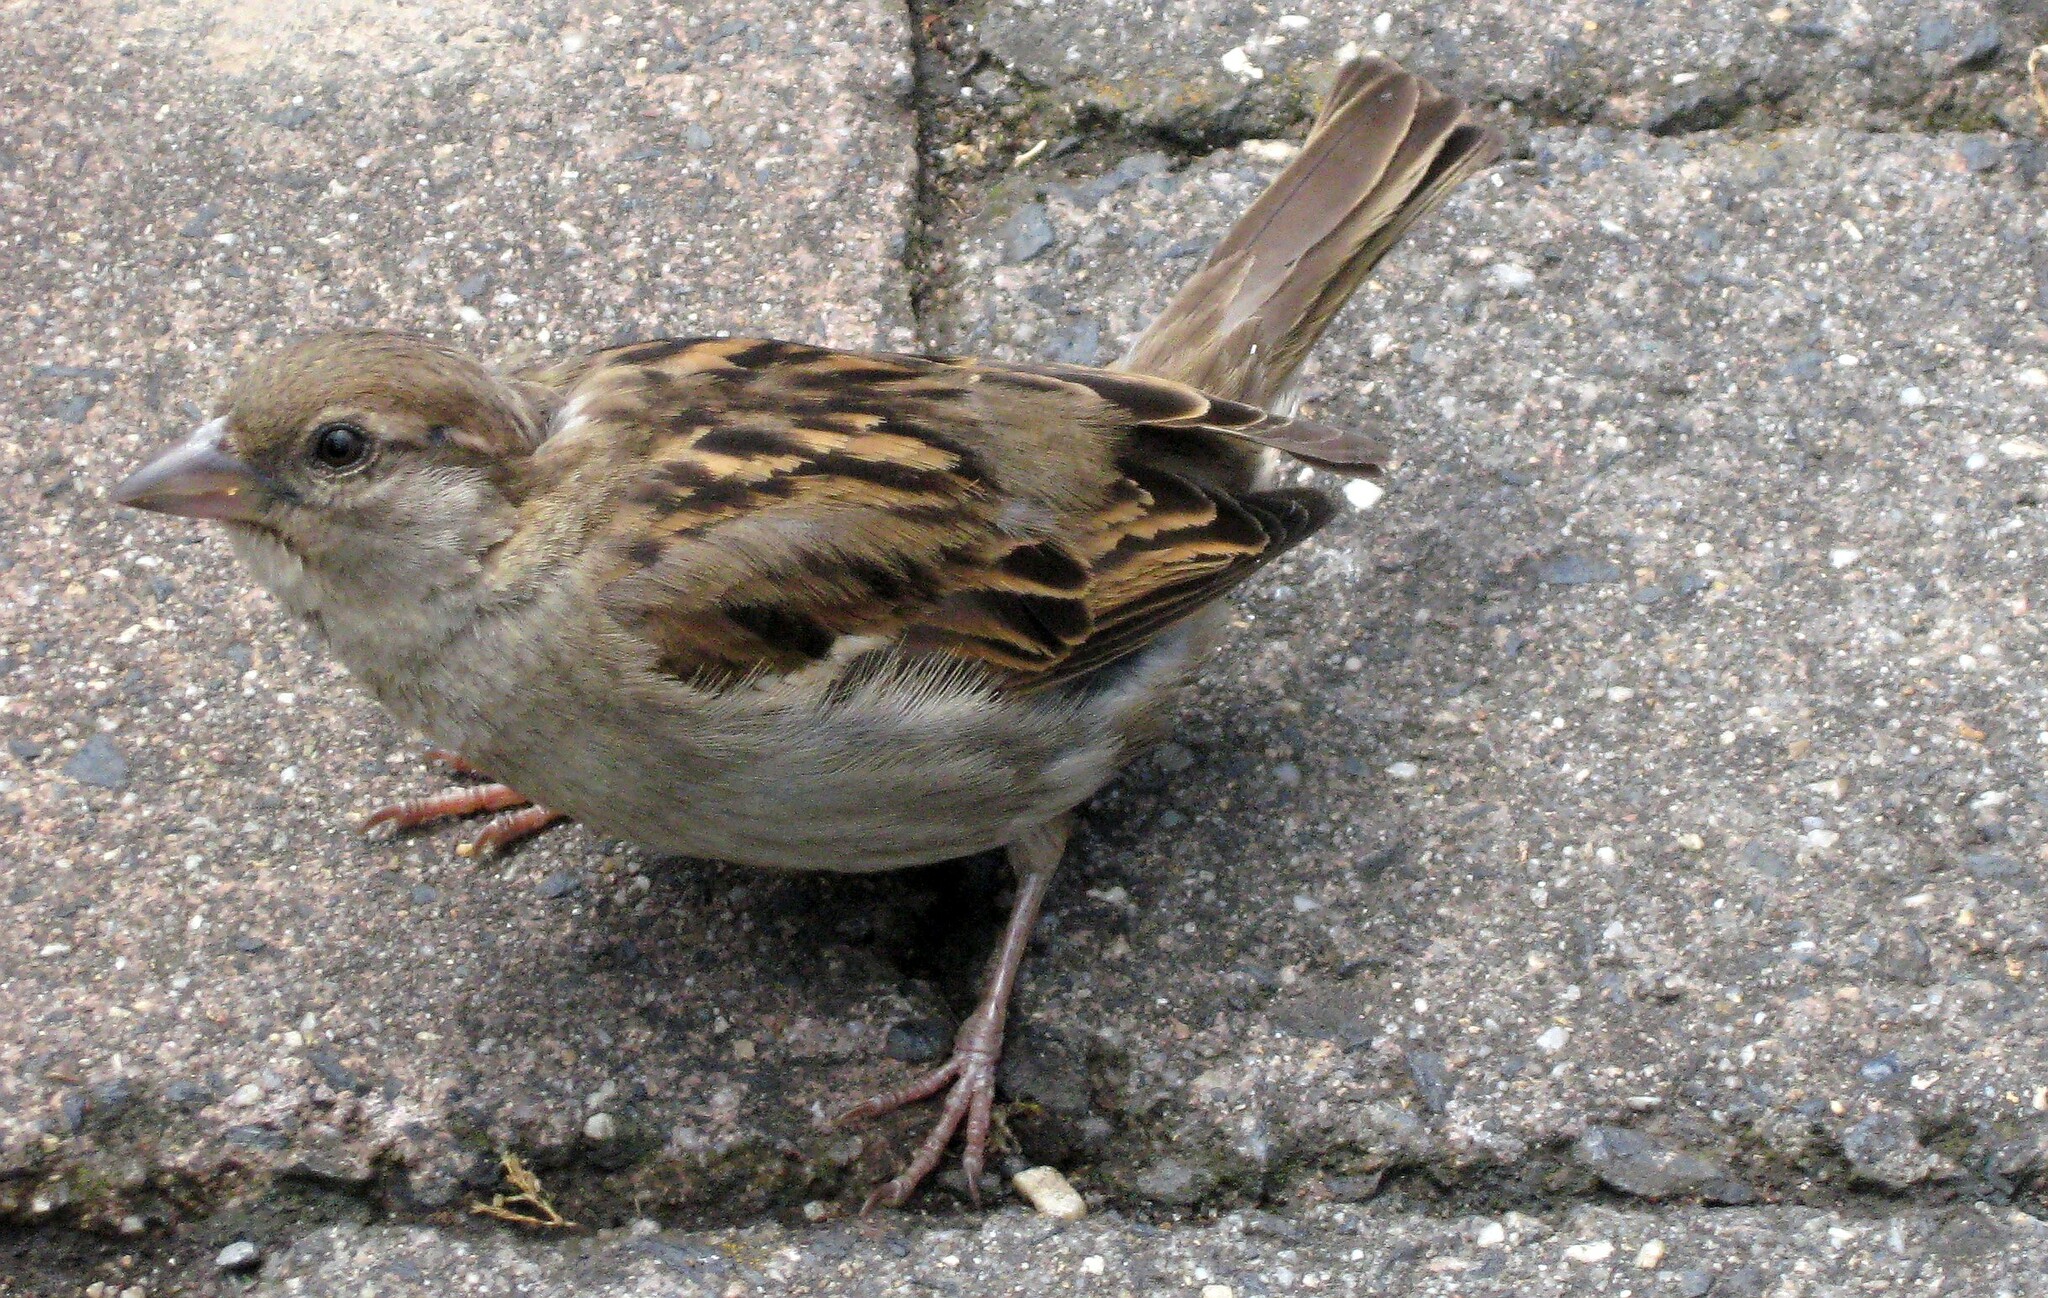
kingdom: Animalia
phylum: Chordata
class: Aves
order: Passeriformes
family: Passeridae
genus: Passer
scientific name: Passer domesticus
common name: House sparrow
